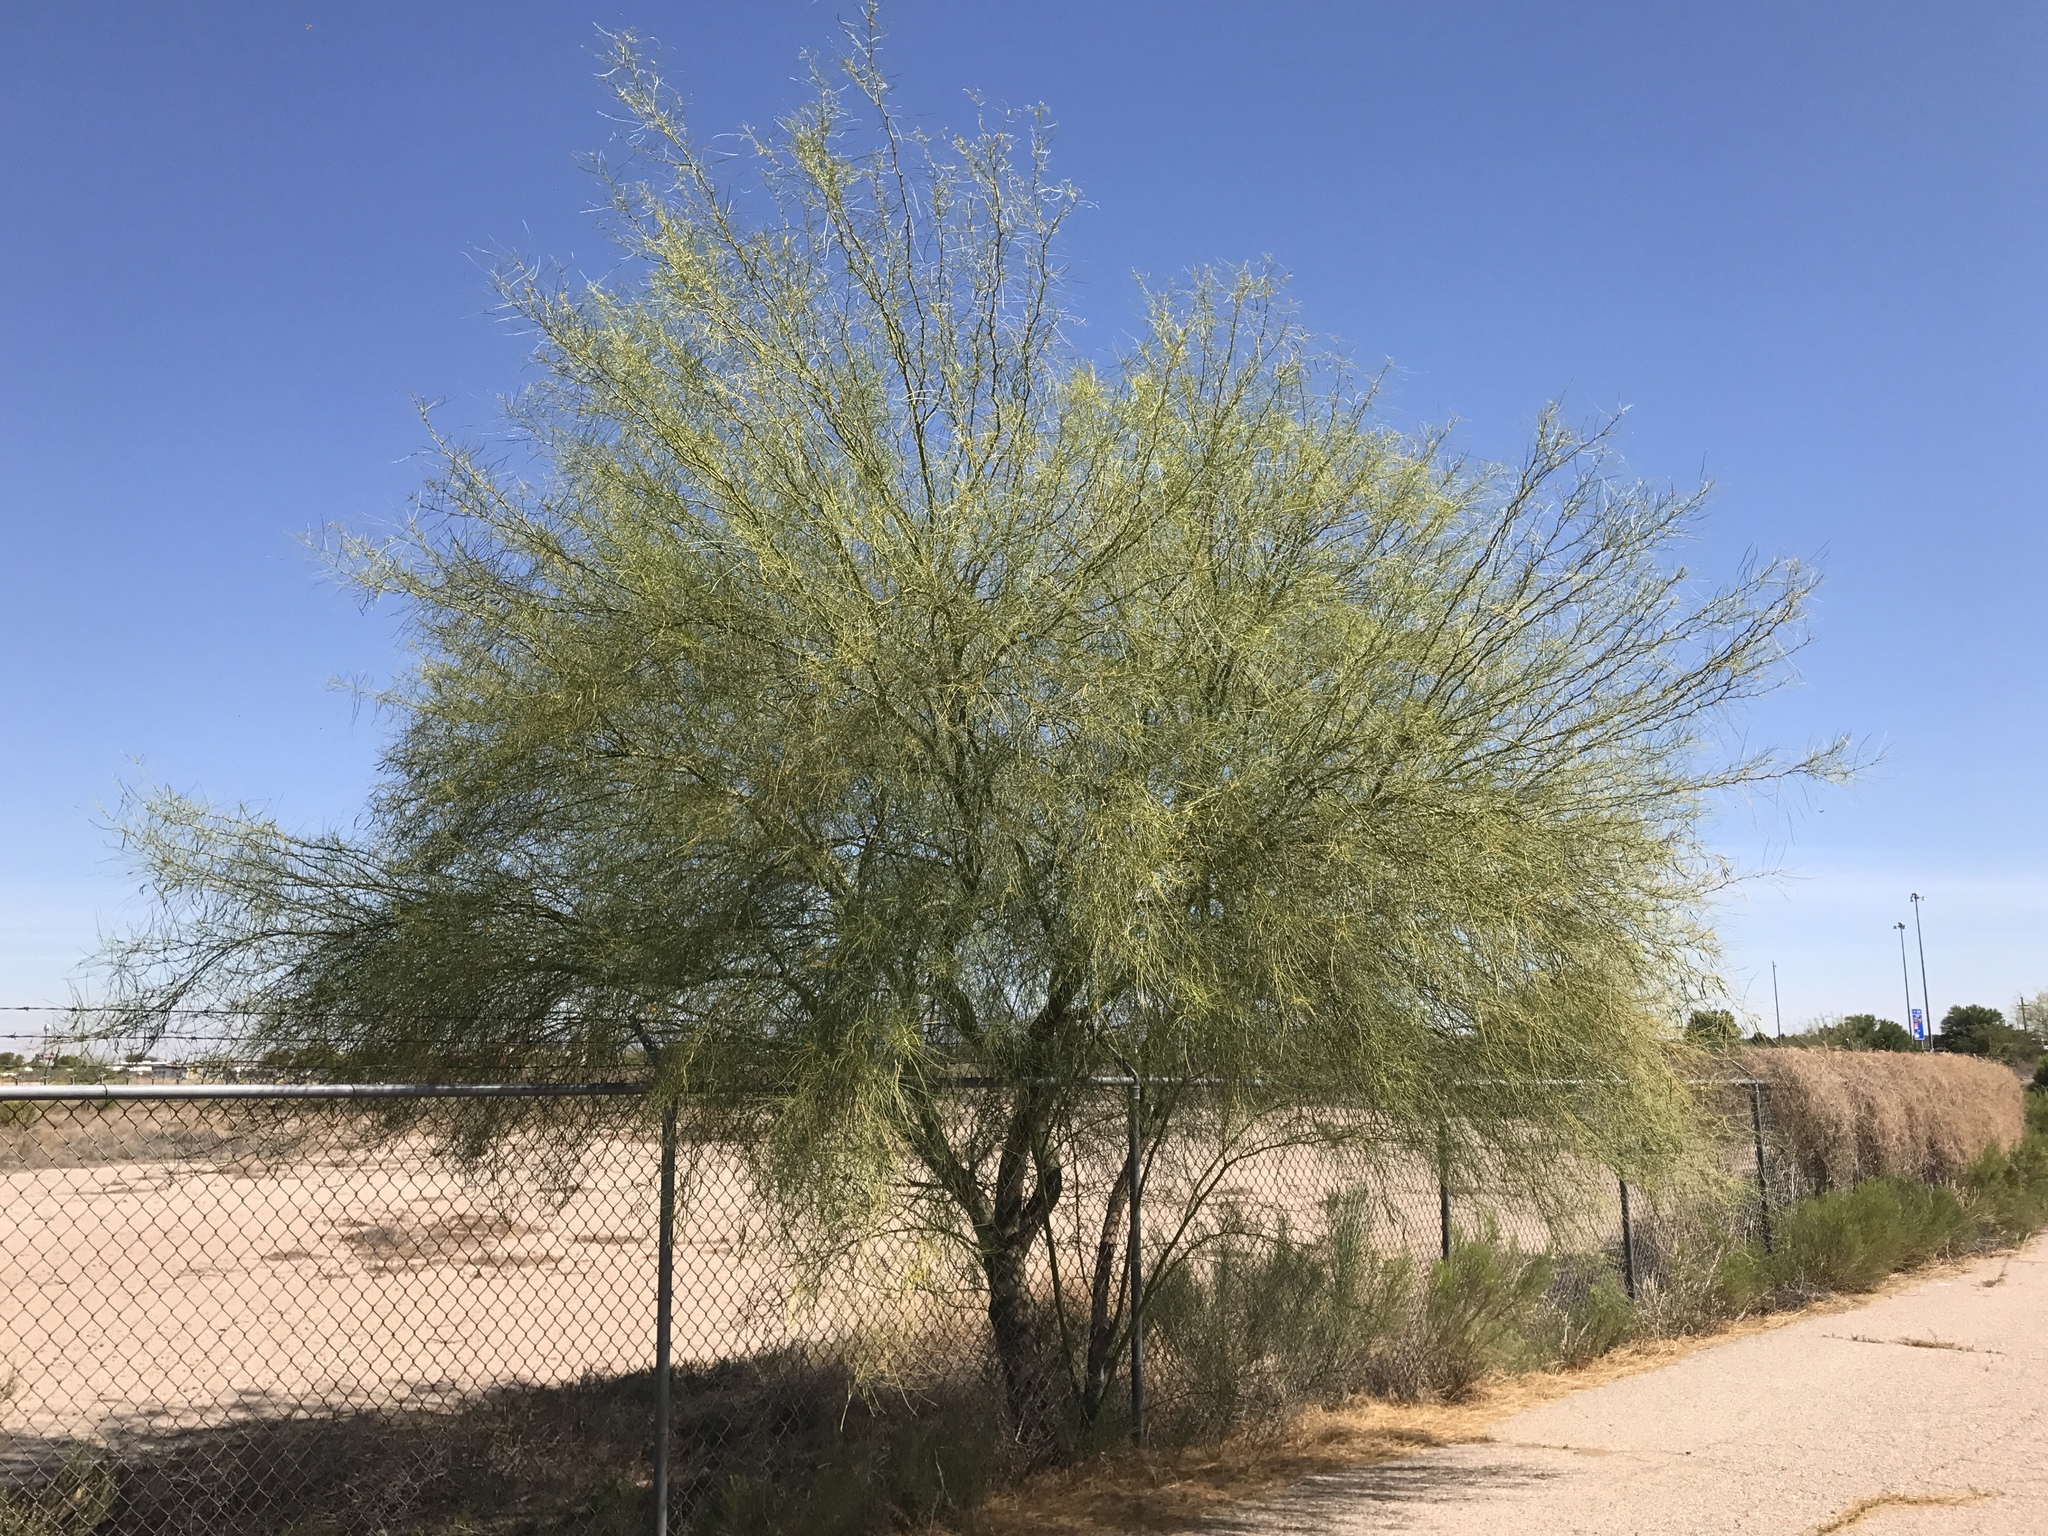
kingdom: Plantae
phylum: Tracheophyta
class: Magnoliopsida
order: Fabales
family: Fabaceae
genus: Parkinsonia
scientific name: Parkinsonia aculeata
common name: Jerusalem thorn
